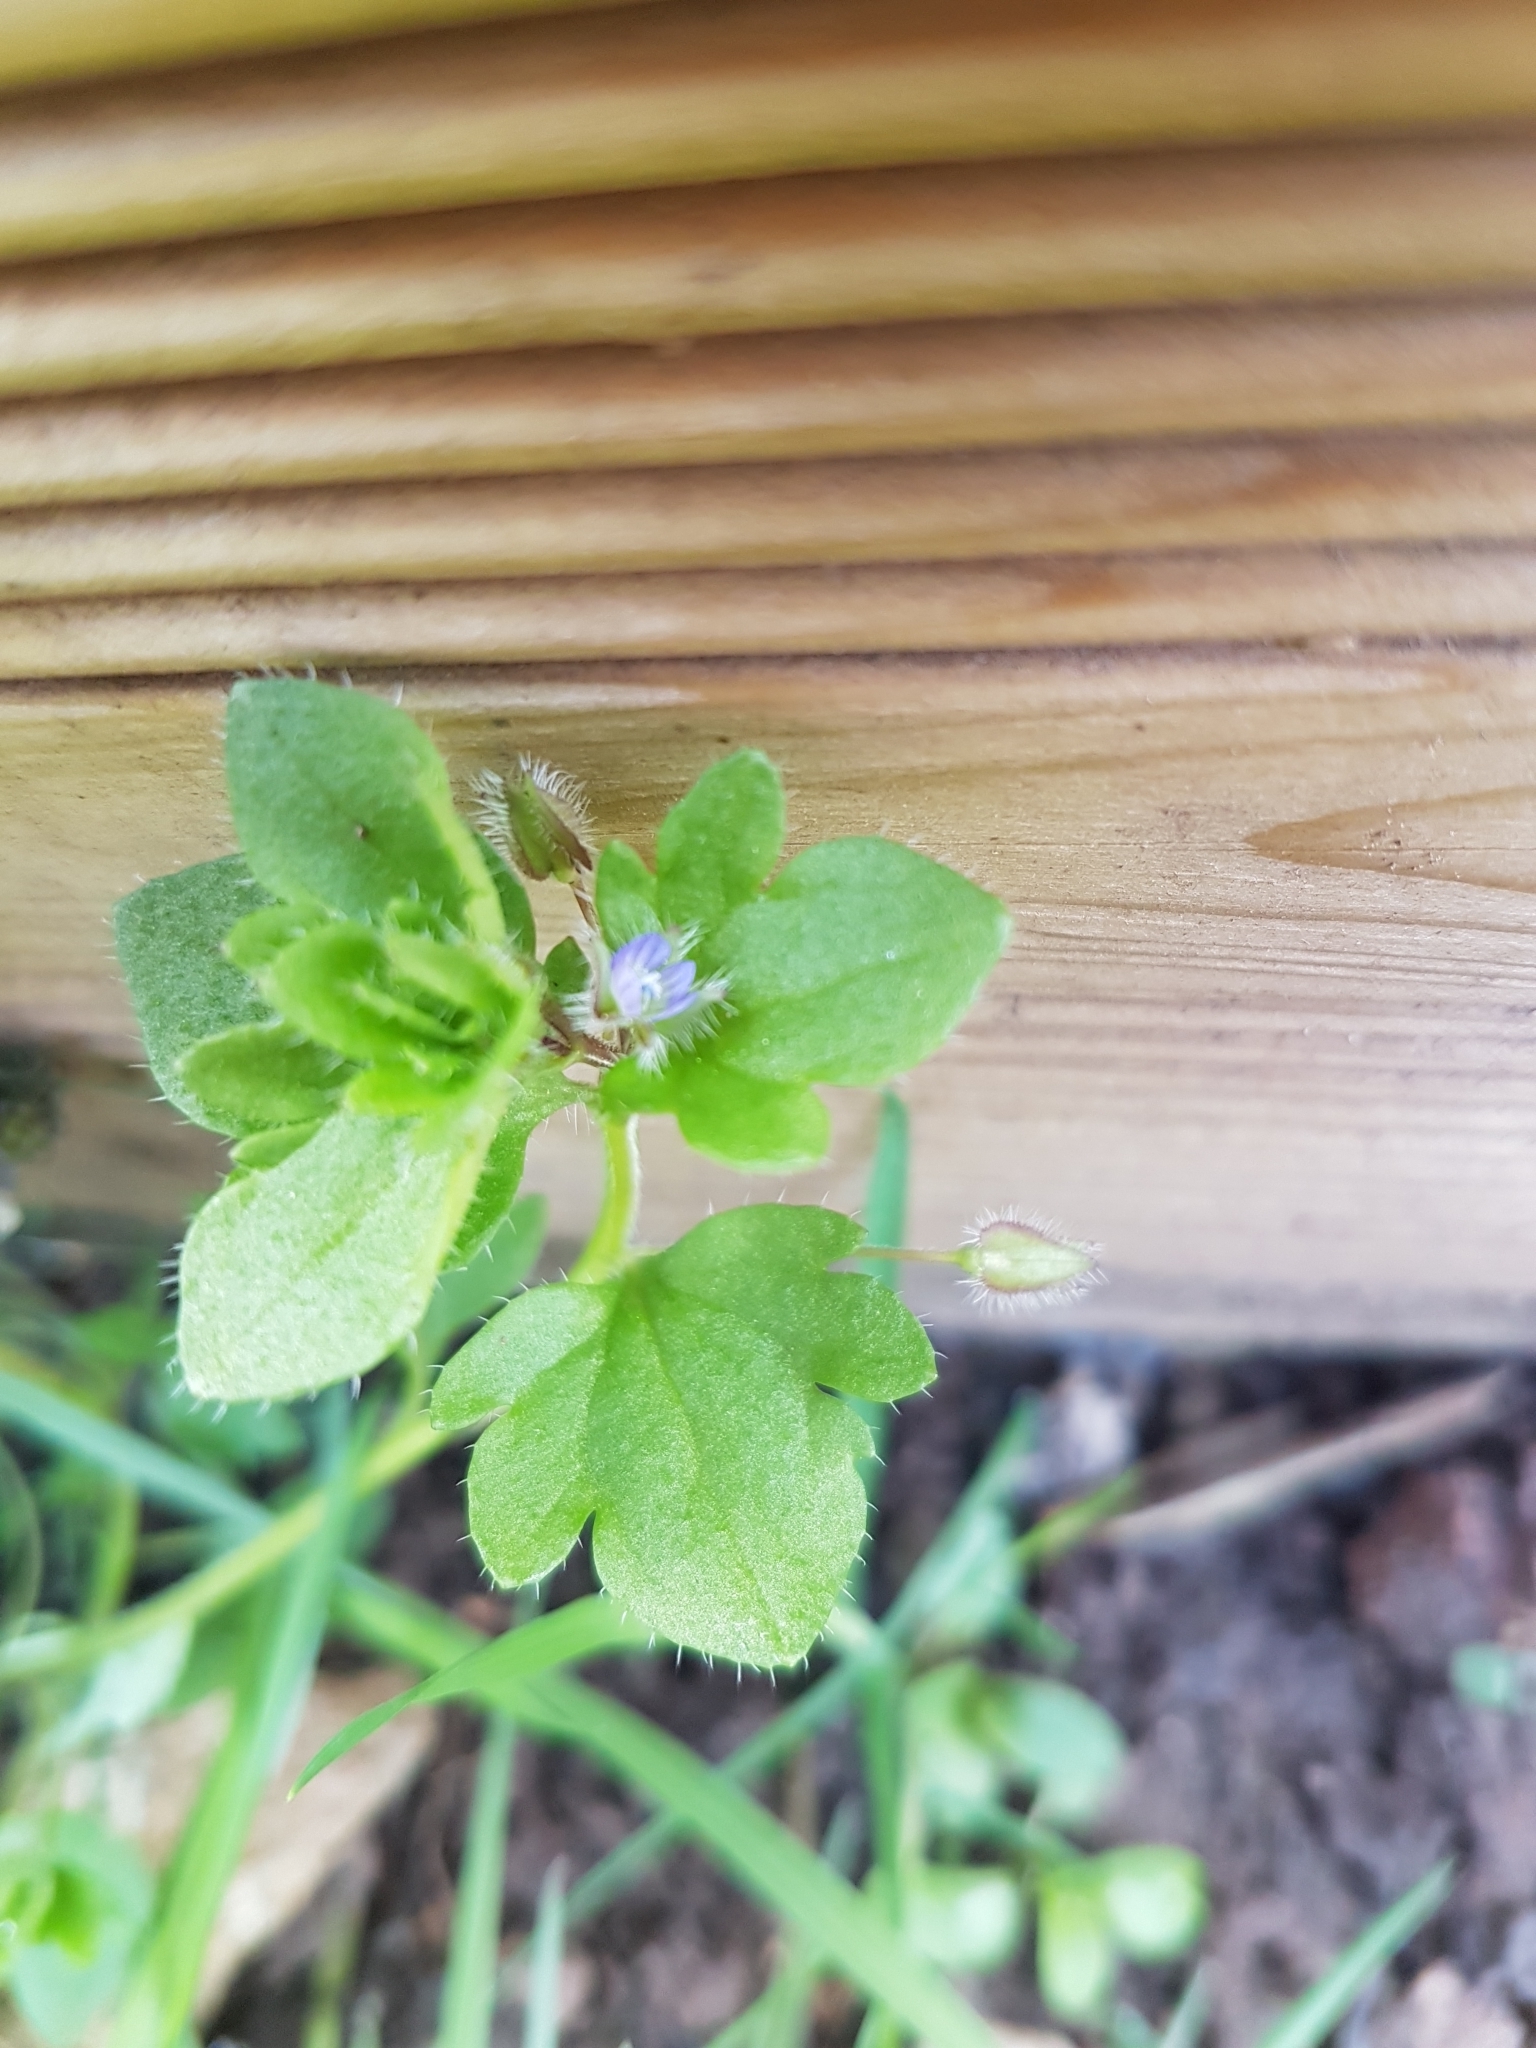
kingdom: Plantae
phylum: Tracheophyta
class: Magnoliopsida
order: Lamiales
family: Plantaginaceae
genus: Veronica
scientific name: Veronica hederifolia
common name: Ivy-leaved speedwell
